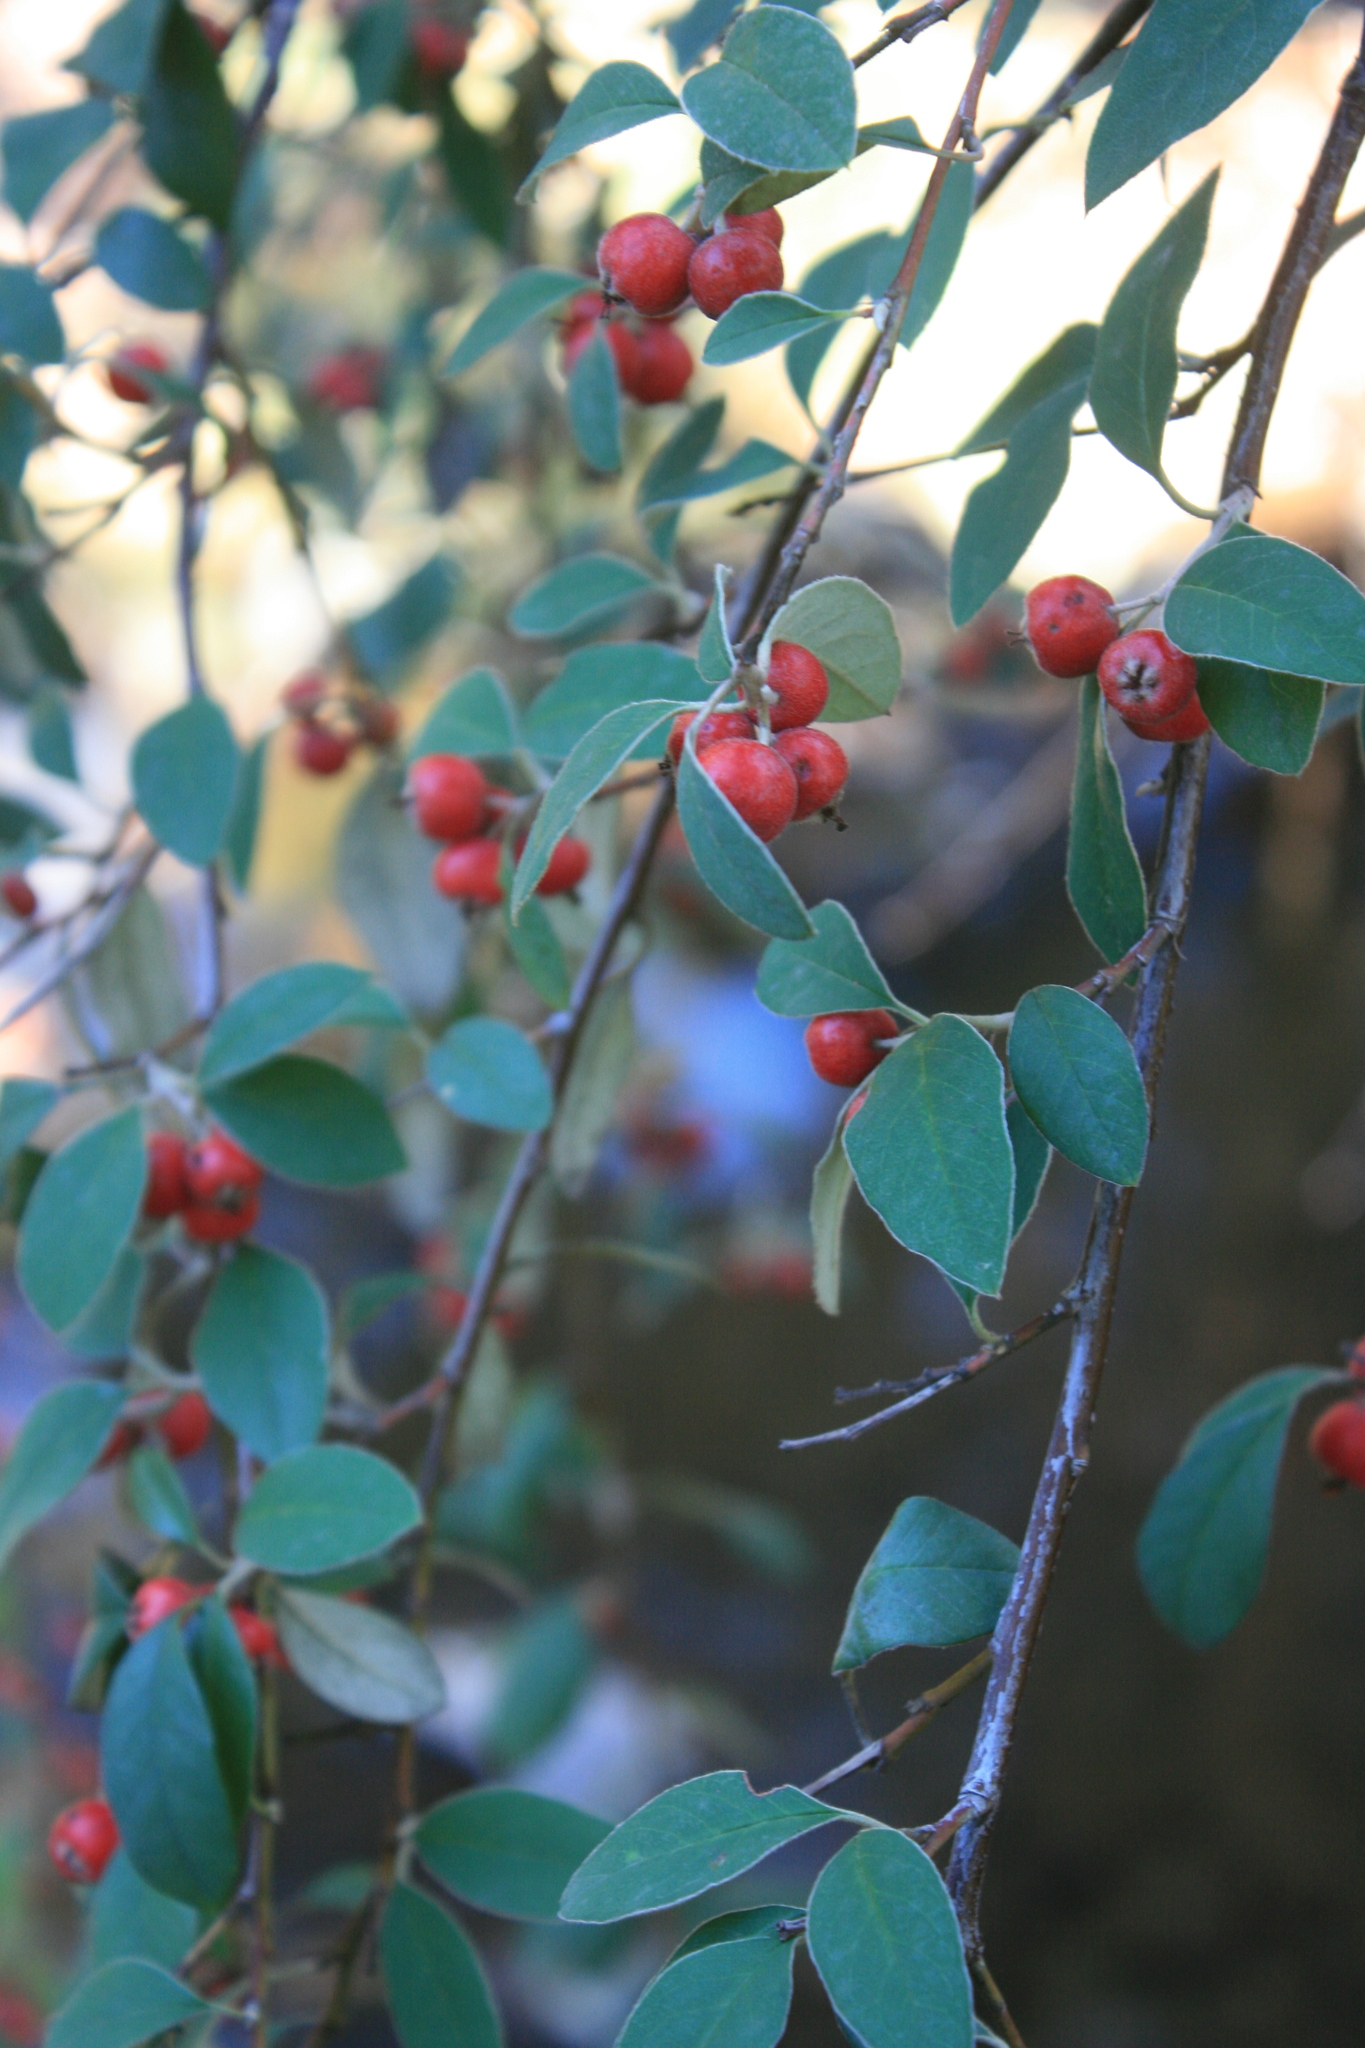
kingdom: Plantae
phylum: Tracheophyta
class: Magnoliopsida
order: Rosales
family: Rosaceae
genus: Cotoneaster
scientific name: Cotoneaster pannosus
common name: Silverleaf cotoneaster
